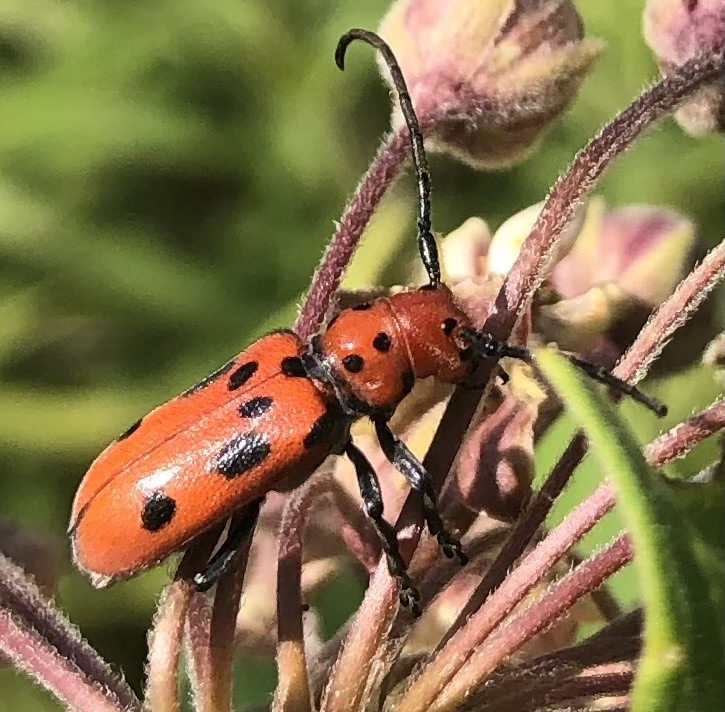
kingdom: Animalia
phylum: Arthropoda
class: Insecta
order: Coleoptera
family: Cerambycidae
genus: Tetraopes
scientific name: Tetraopes tetrophthalmus
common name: Red milkweed beetle
